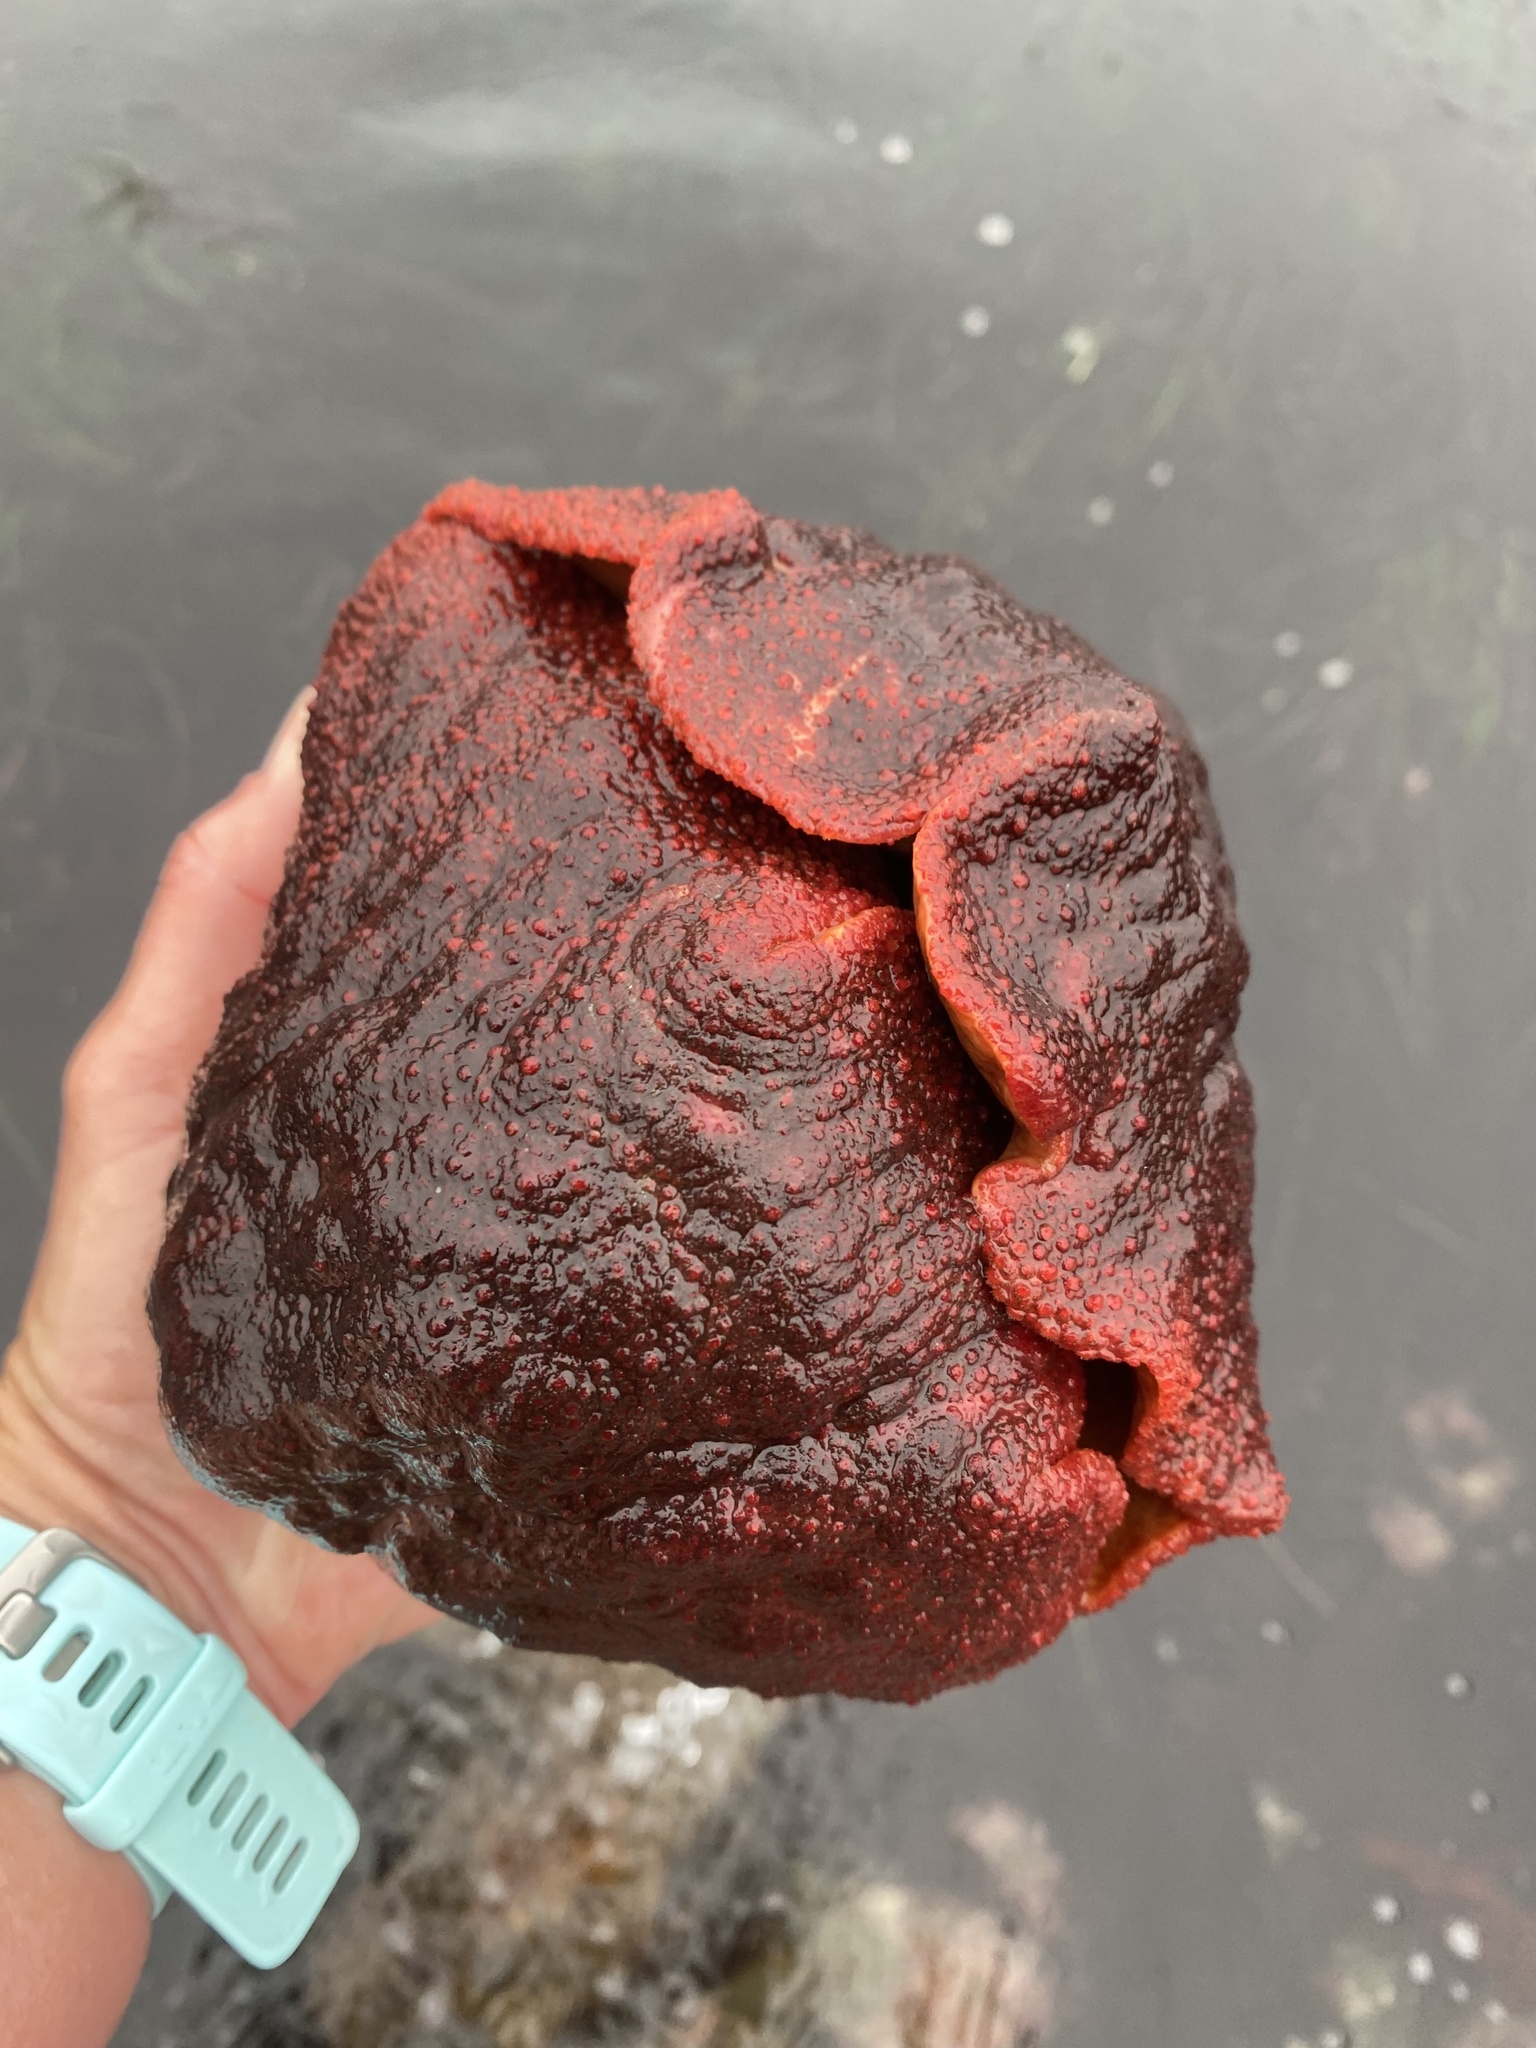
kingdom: Animalia
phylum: Mollusca
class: Polyplacophora
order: Chitonida
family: Acanthochitonidae
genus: Cryptochiton
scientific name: Cryptochiton stelleri
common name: Giant pacific chiton
